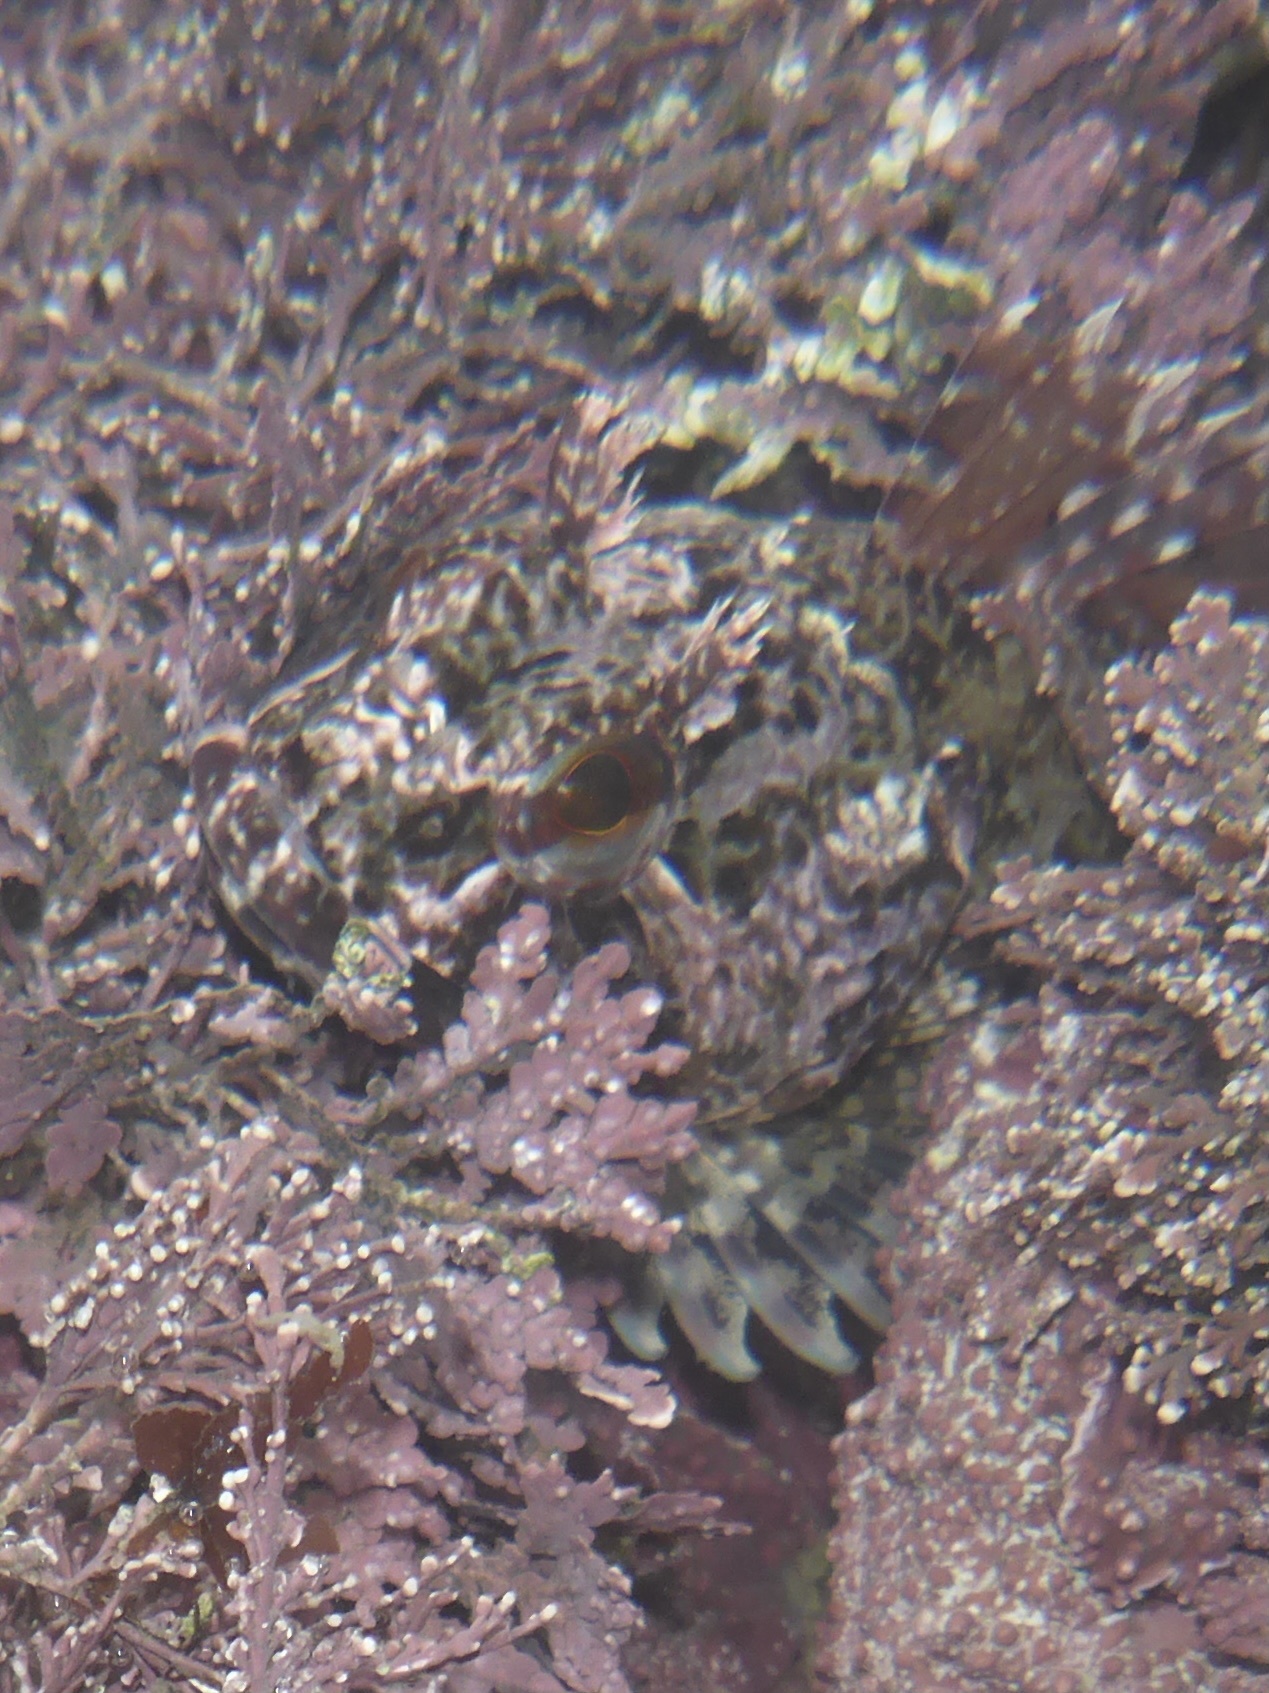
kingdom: Animalia
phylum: Chordata
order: Scorpaeniformes
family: Cottidae
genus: Scorpaenichthys
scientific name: Scorpaenichthys marmoratus
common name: Cabezon
